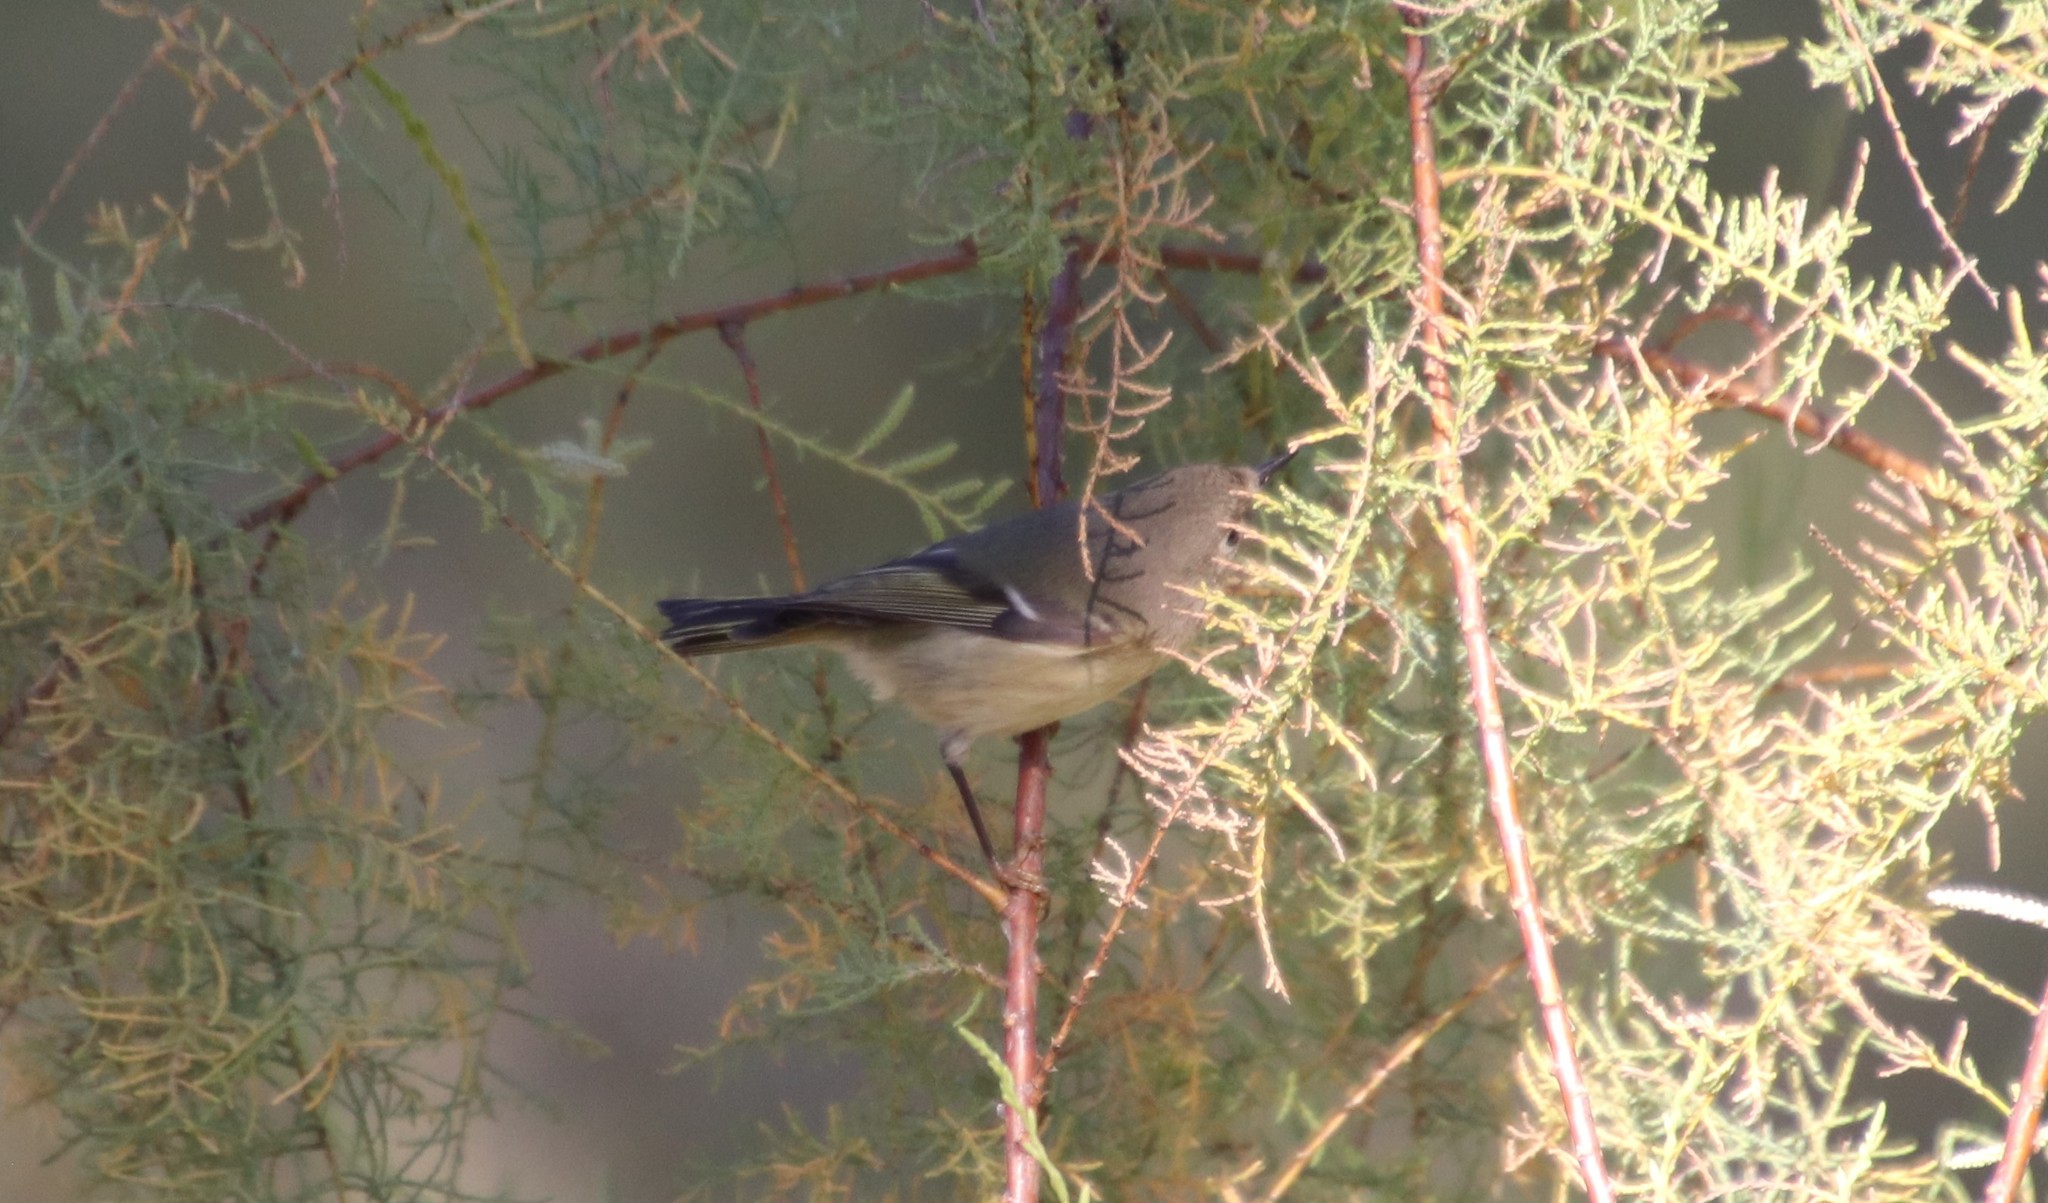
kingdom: Animalia
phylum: Chordata
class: Aves
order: Passeriformes
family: Regulidae
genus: Regulus
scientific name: Regulus calendula
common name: Ruby-crowned kinglet
